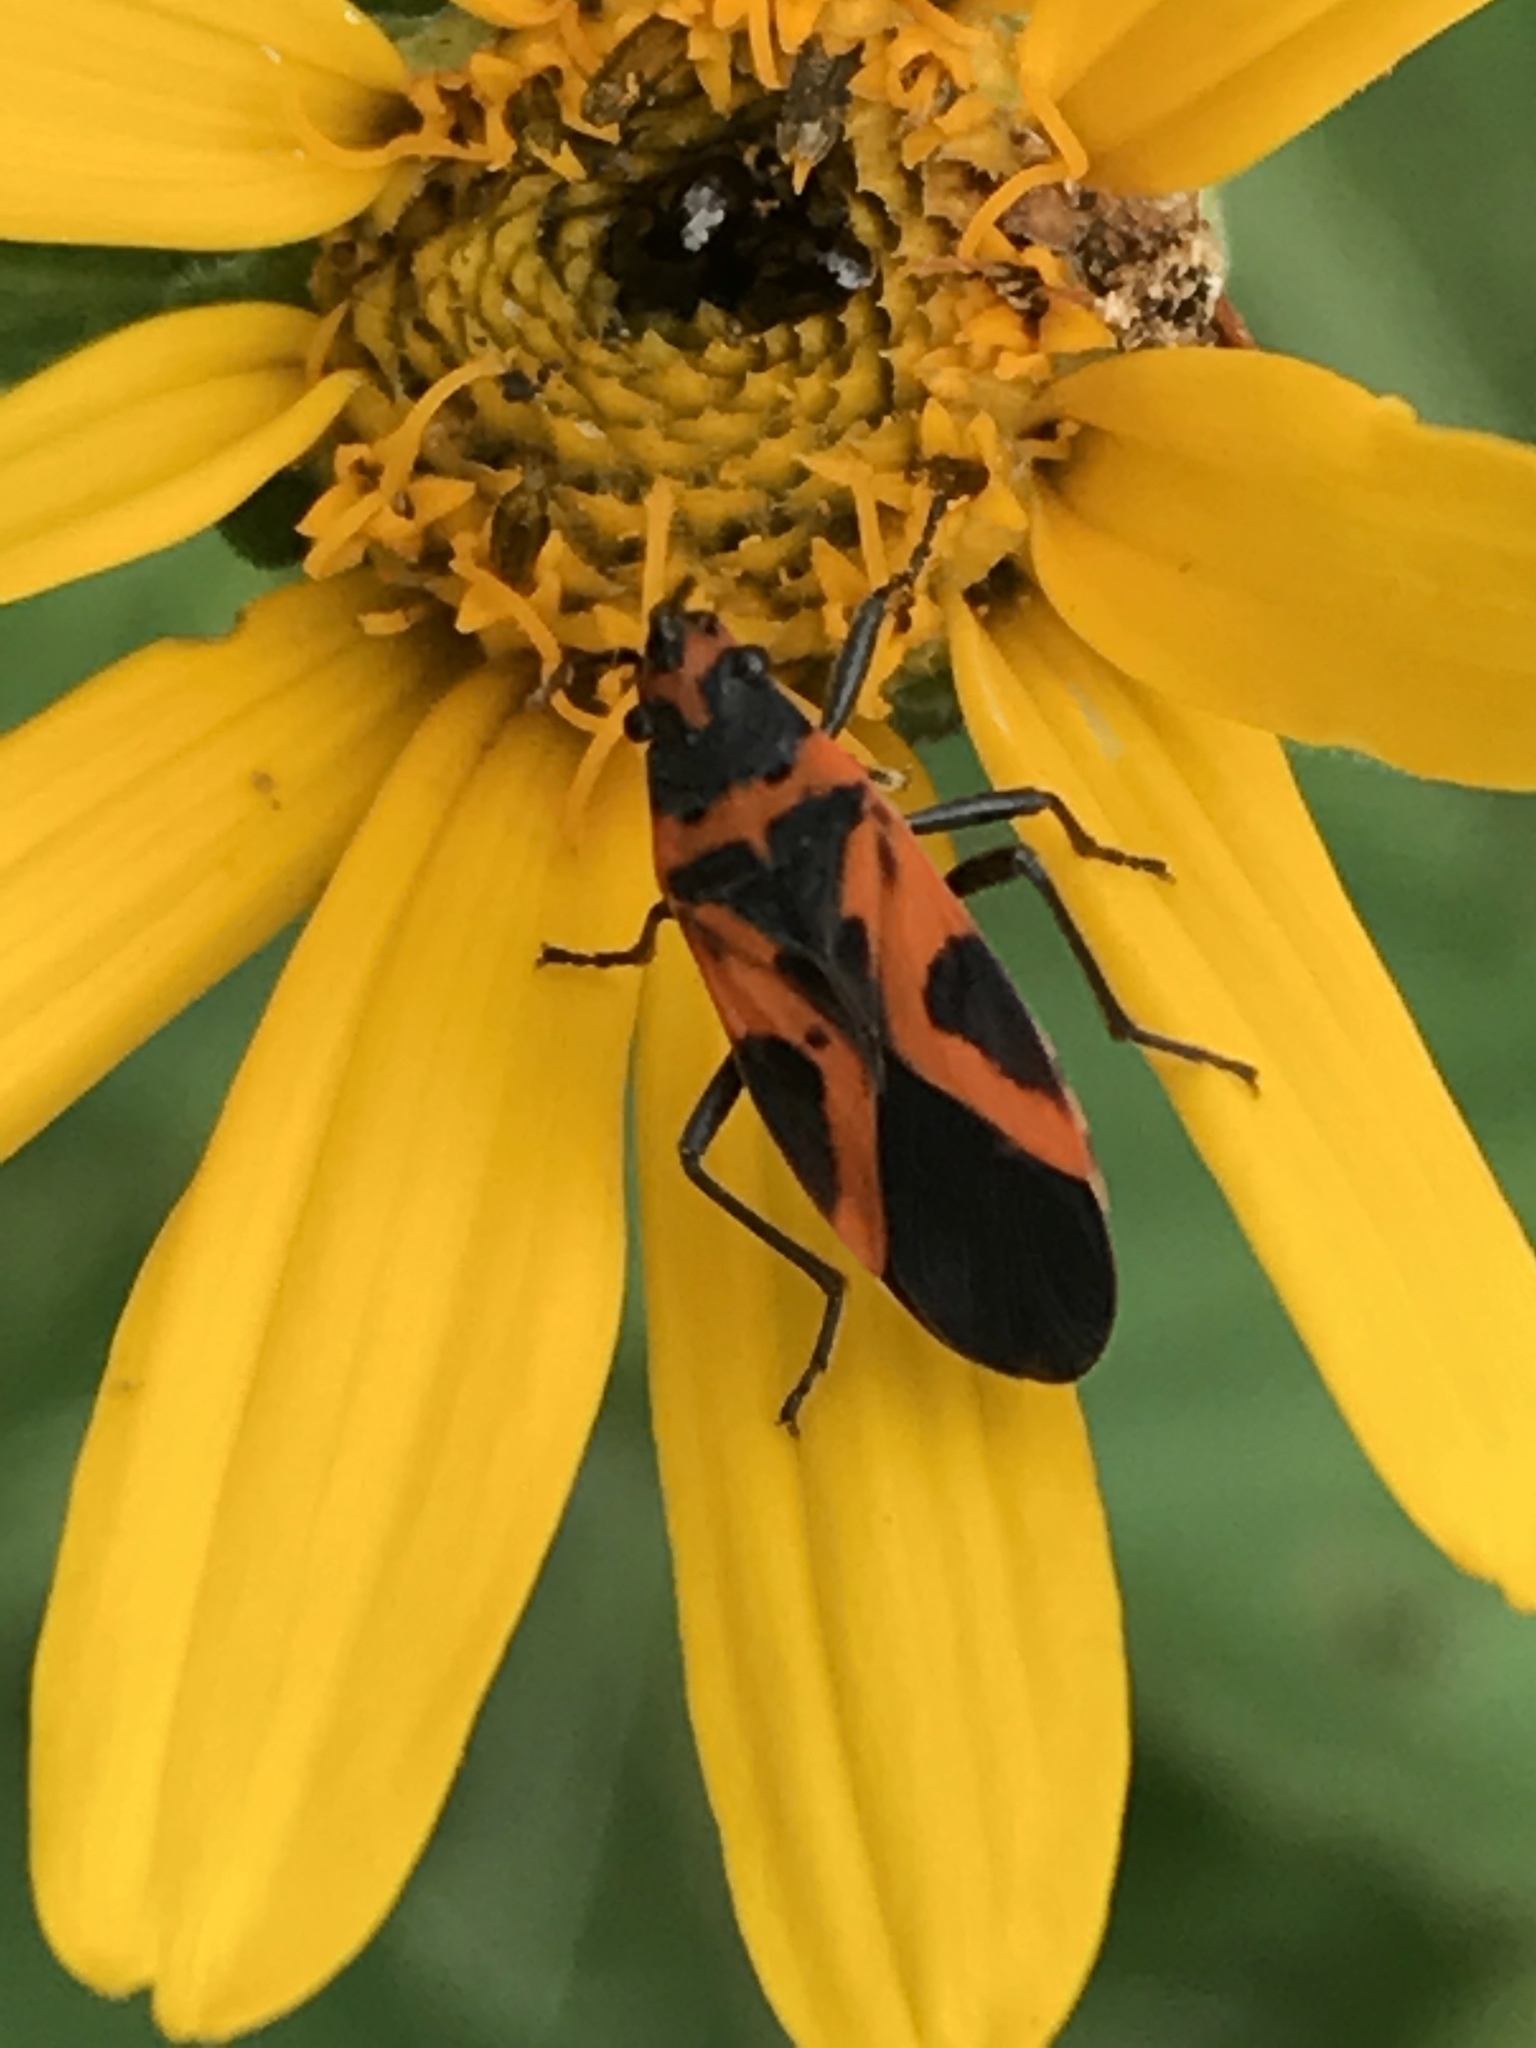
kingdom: Animalia
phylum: Arthropoda
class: Insecta
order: Hemiptera
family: Lygaeidae
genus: Lygaeus
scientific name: Lygaeus turcicus
